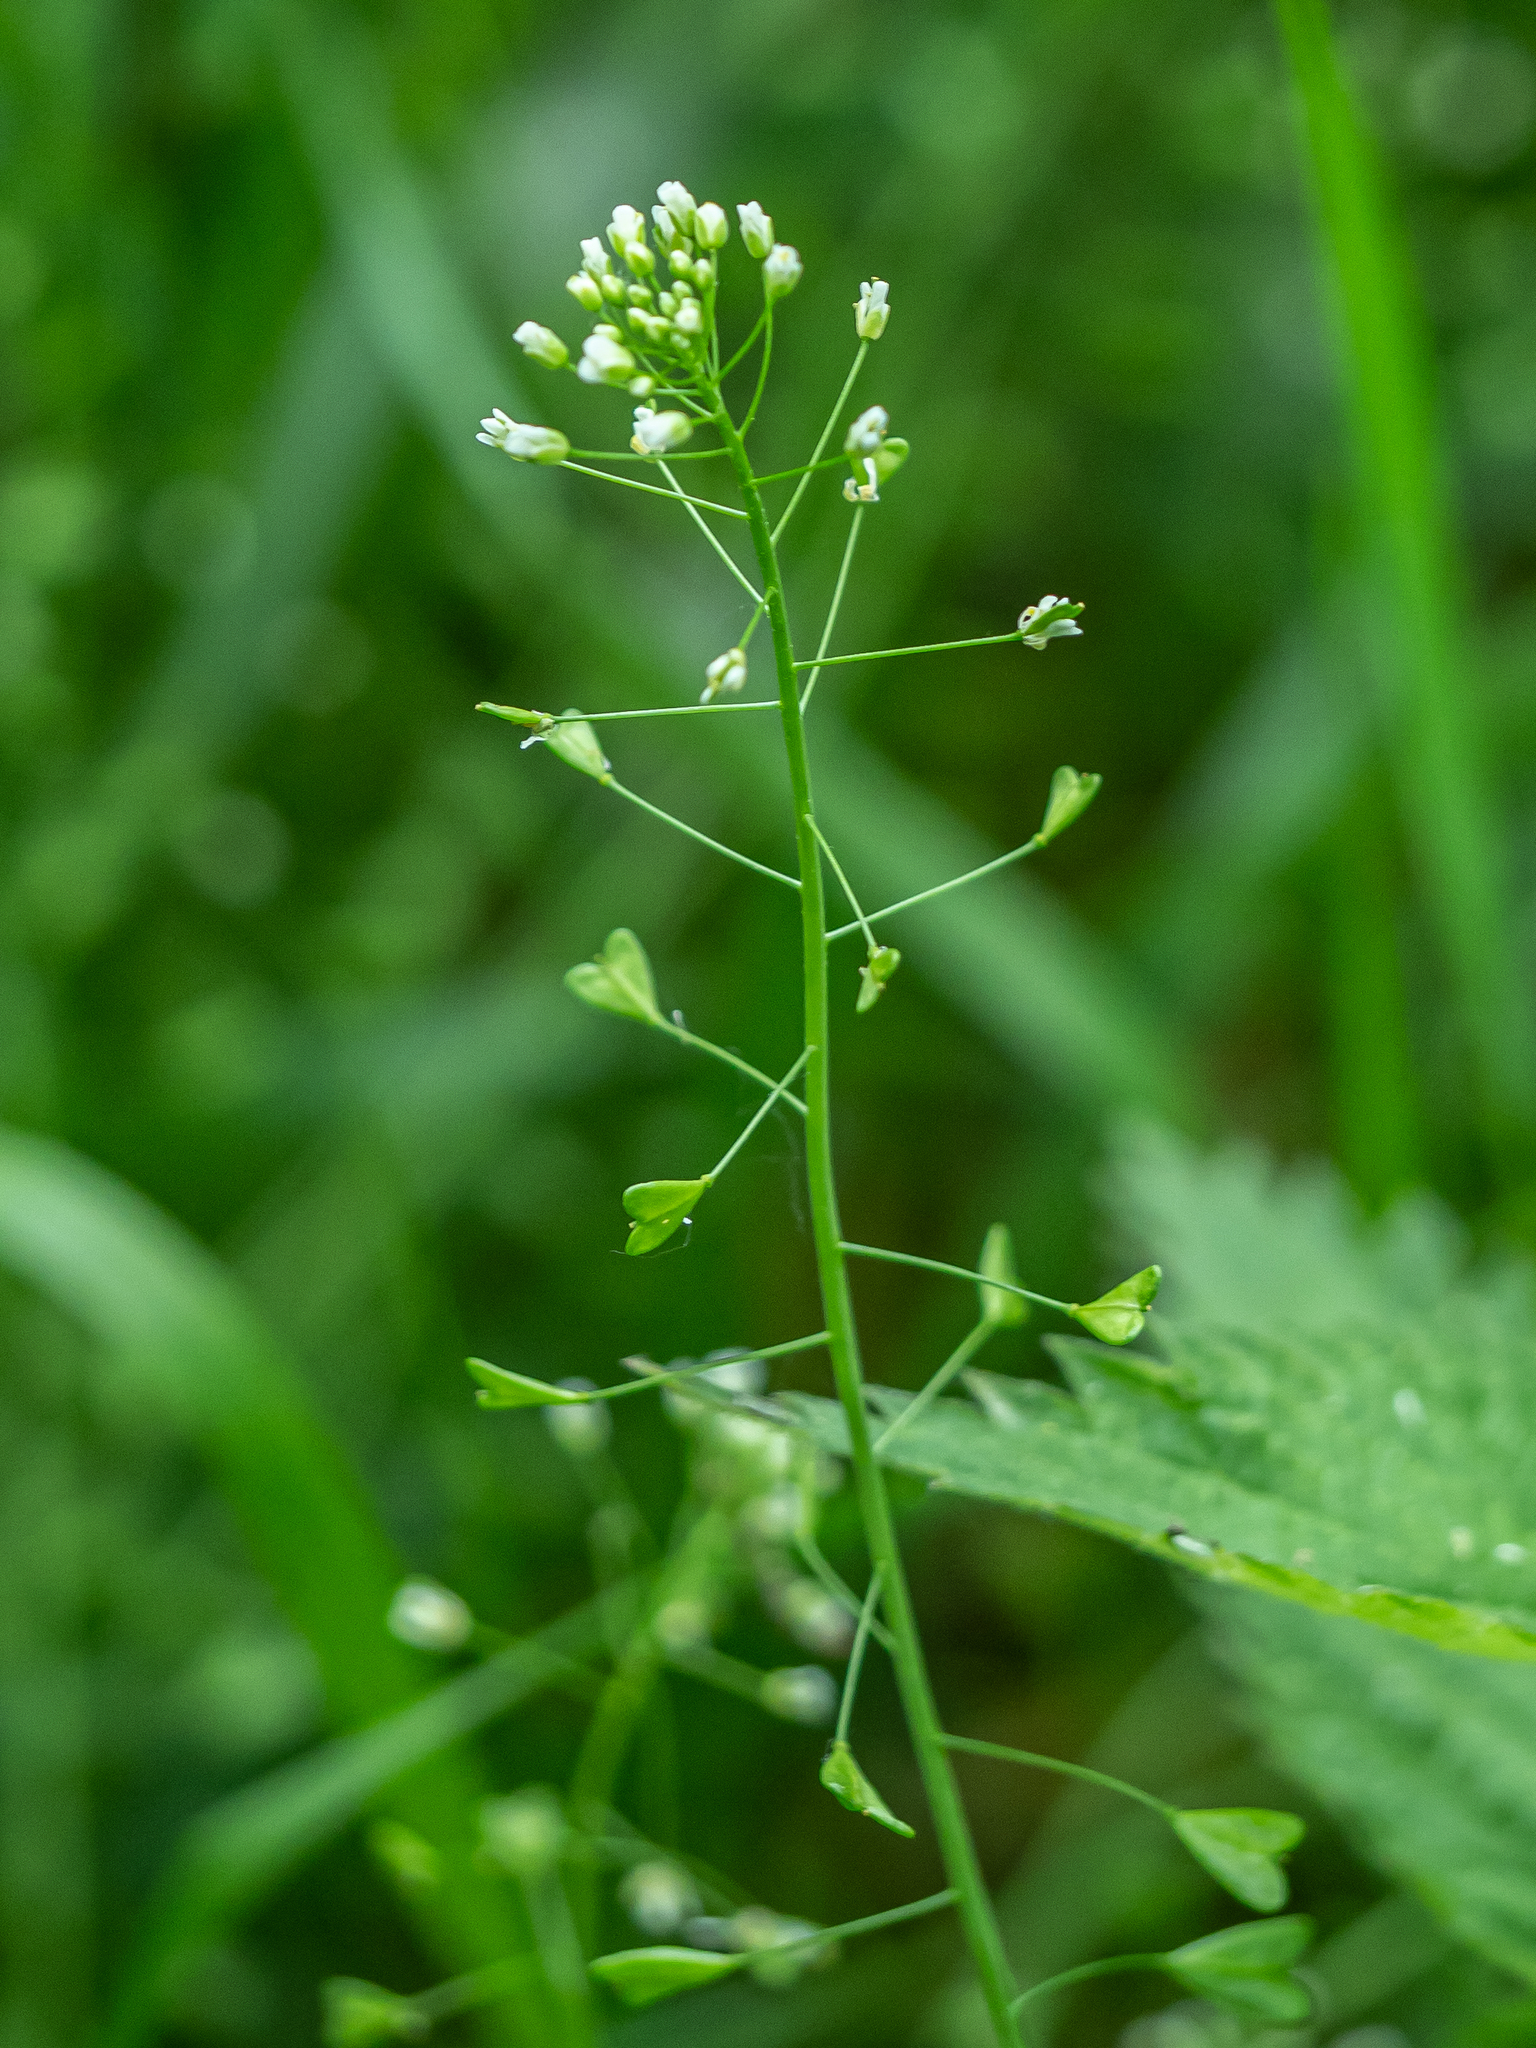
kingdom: Plantae
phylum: Tracheophyta
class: Magnoliopsida
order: Brassicales
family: Brassicaceae
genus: Capsella
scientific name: Capsella bursa-pastoris
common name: Shepherd's purse
